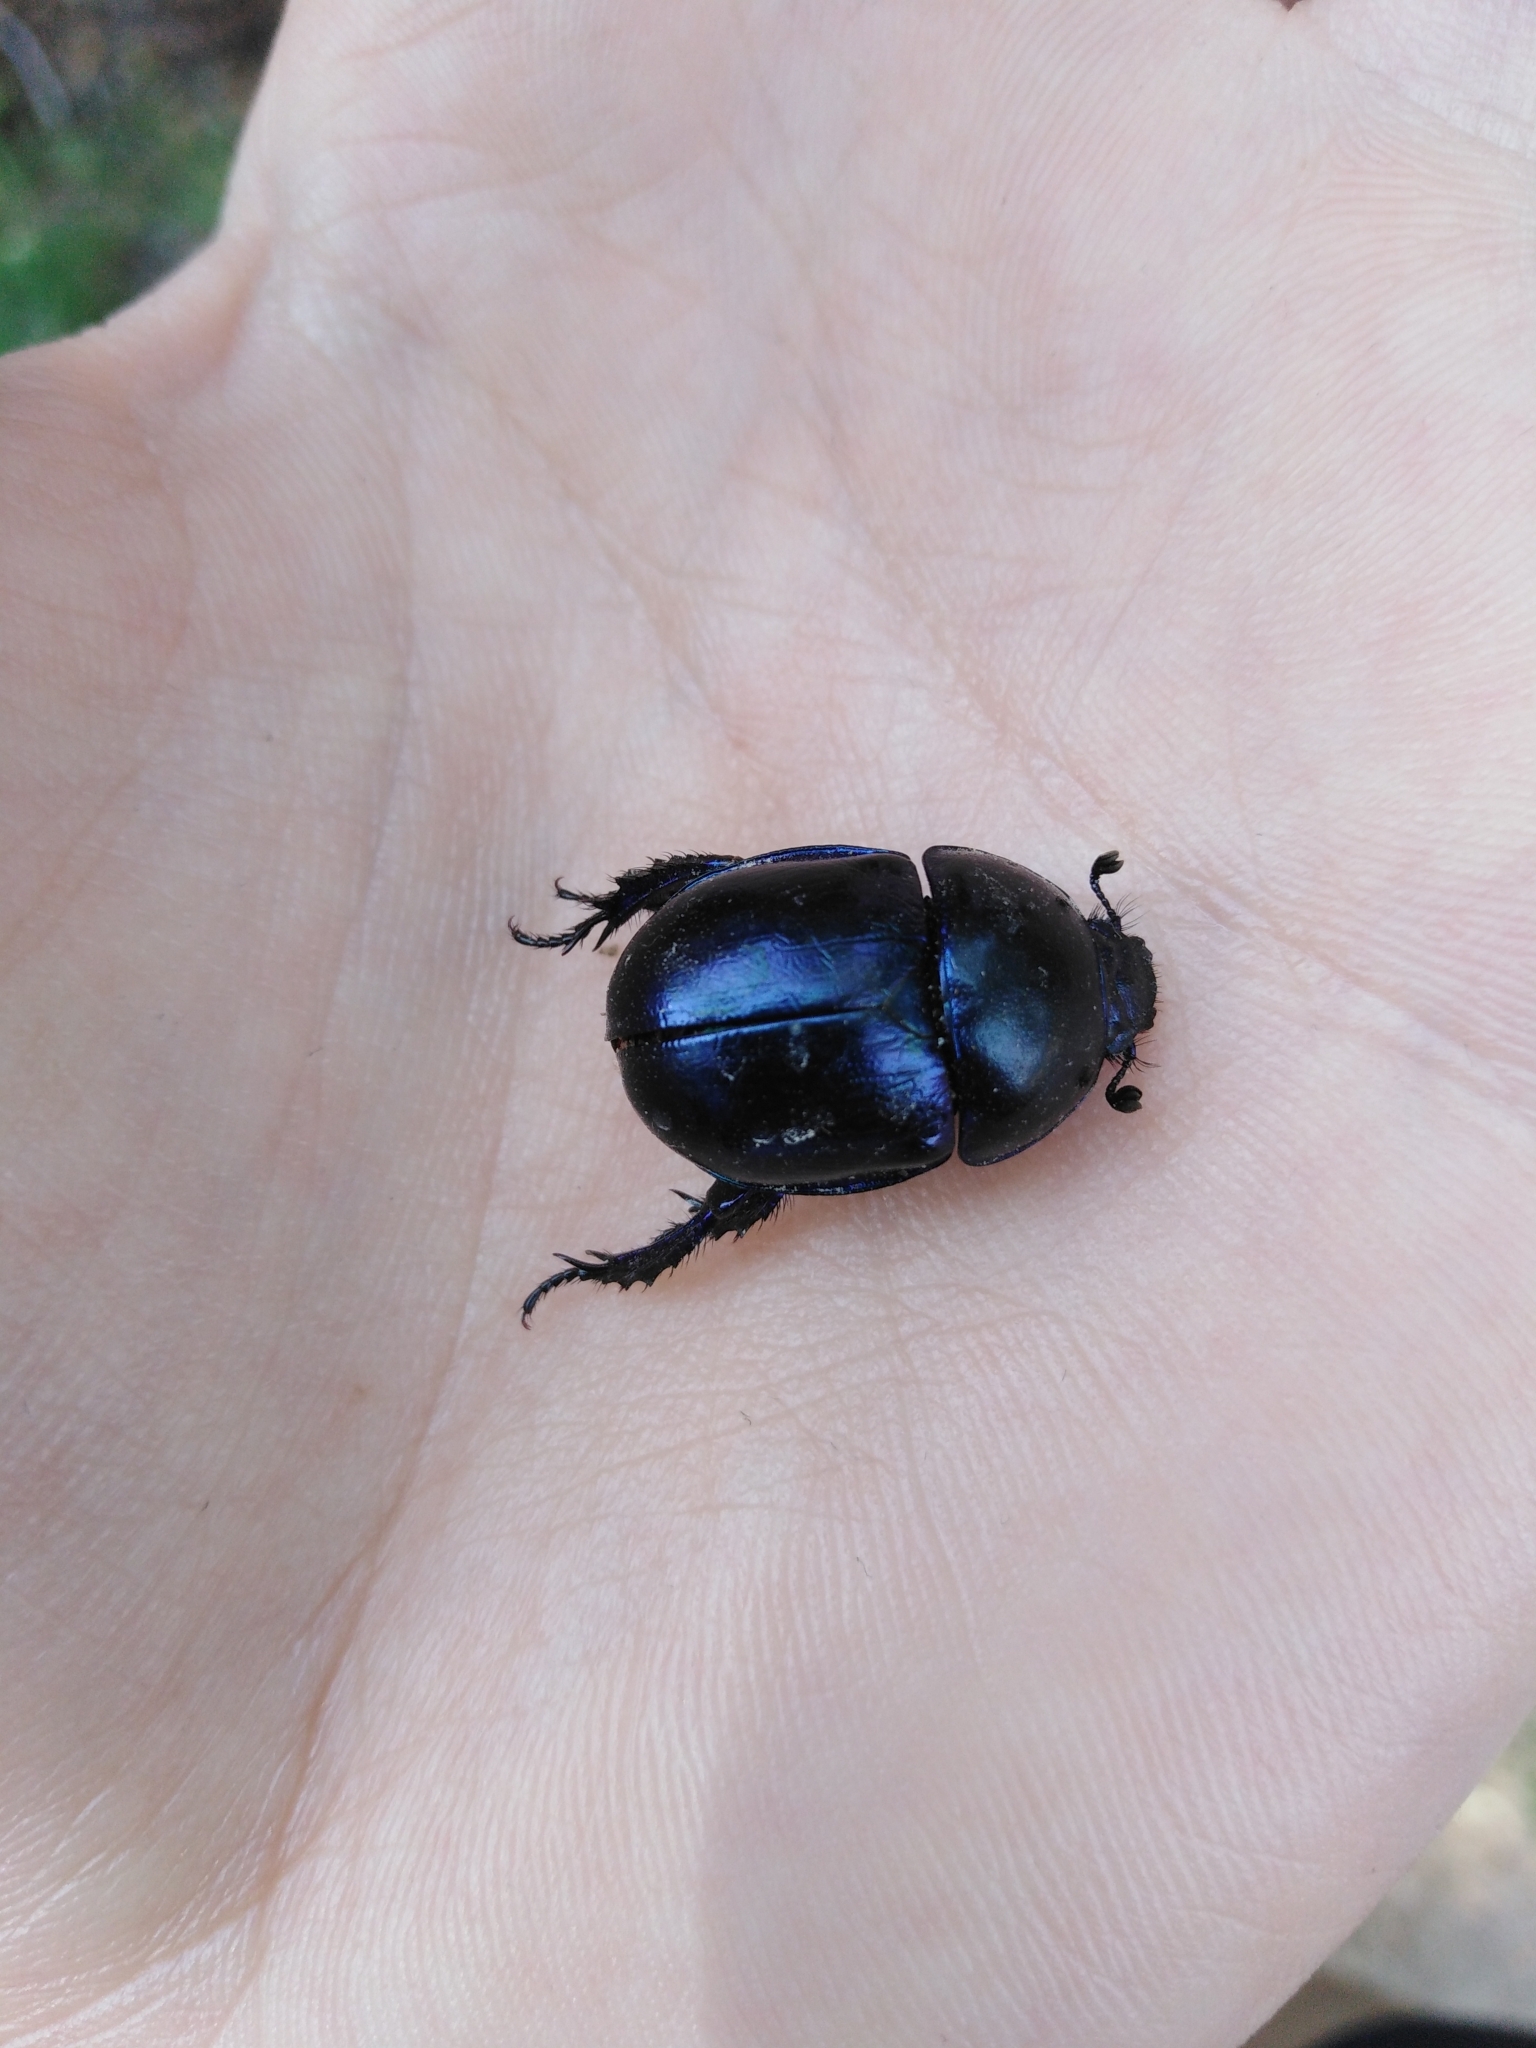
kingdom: Animalia
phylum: Arthropoda
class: Insecta
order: Coleoptera
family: Geotrupidae
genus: Trypocopris
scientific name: Trypocopris vernalis
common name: Spring dumbledor
